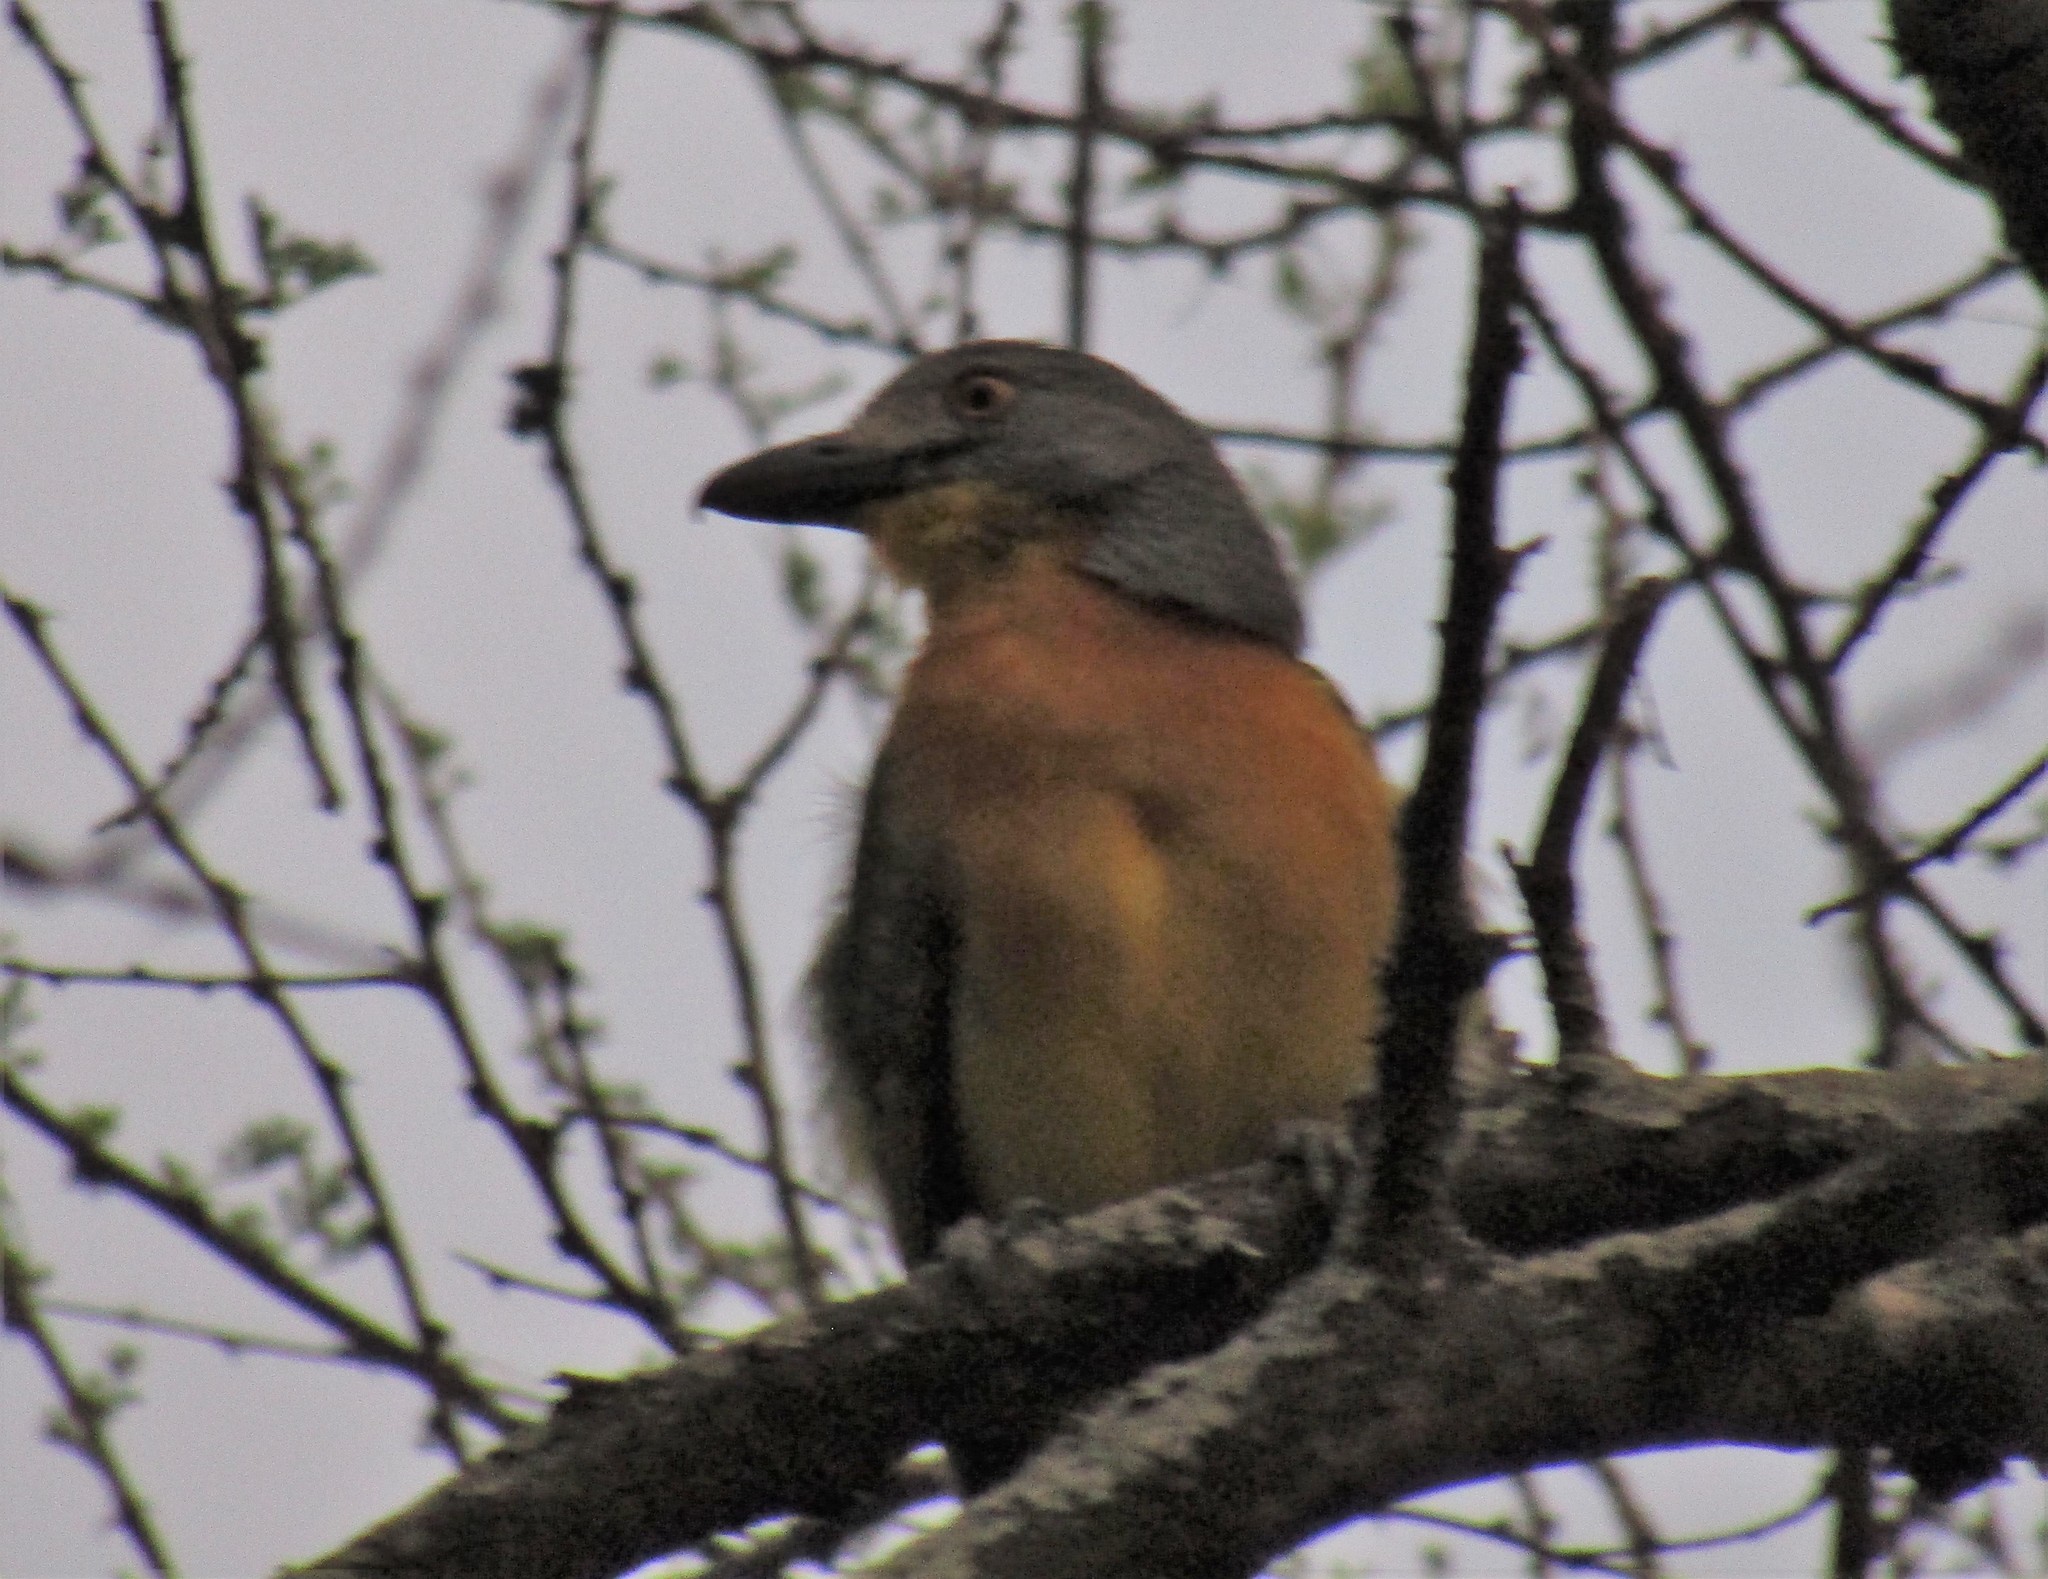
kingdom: Animalia
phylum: Chordata
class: Aves
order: Passeriformes
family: Malaconotidae
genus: Malaconotus
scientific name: Malaconotus blanchoti
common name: Grey-headed bushshrike
